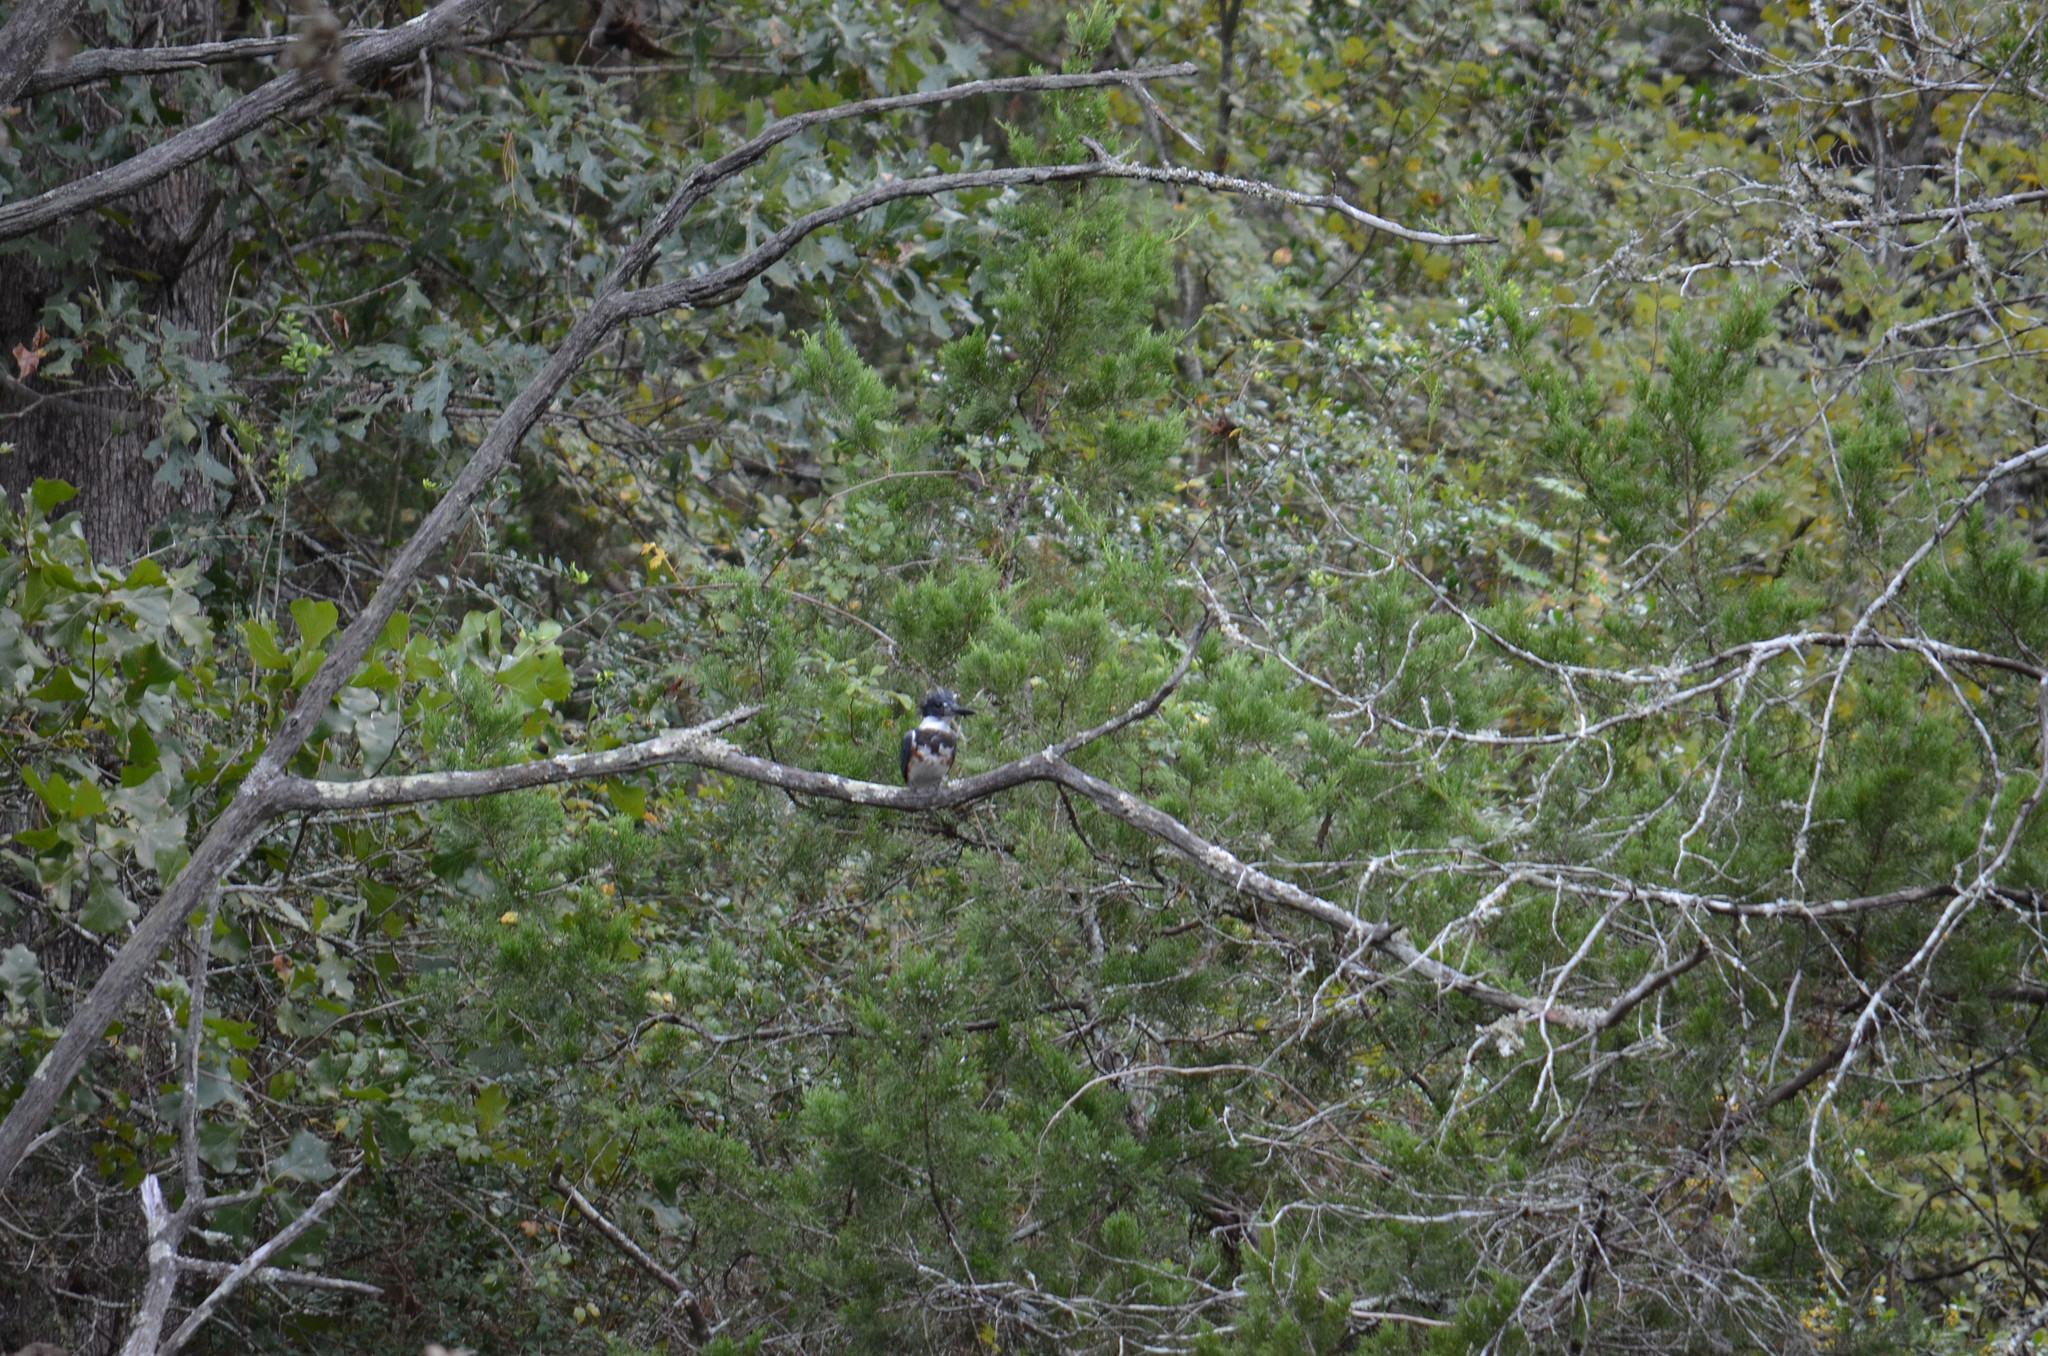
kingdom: Animalia
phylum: Chordata
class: Aves
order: Coraciiformes
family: Alcedinidae
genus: Megaceryle
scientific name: Megaceryle alcyon
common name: Belted kingfisher
